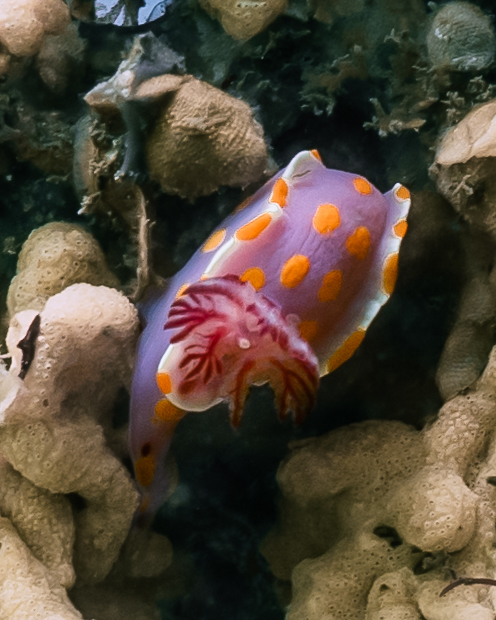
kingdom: Animalia
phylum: Mollusca
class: Gastropoda
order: Nudibranchia
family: Chromodorididae
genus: Ceratosoma
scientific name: Ceratosoma amoenum
